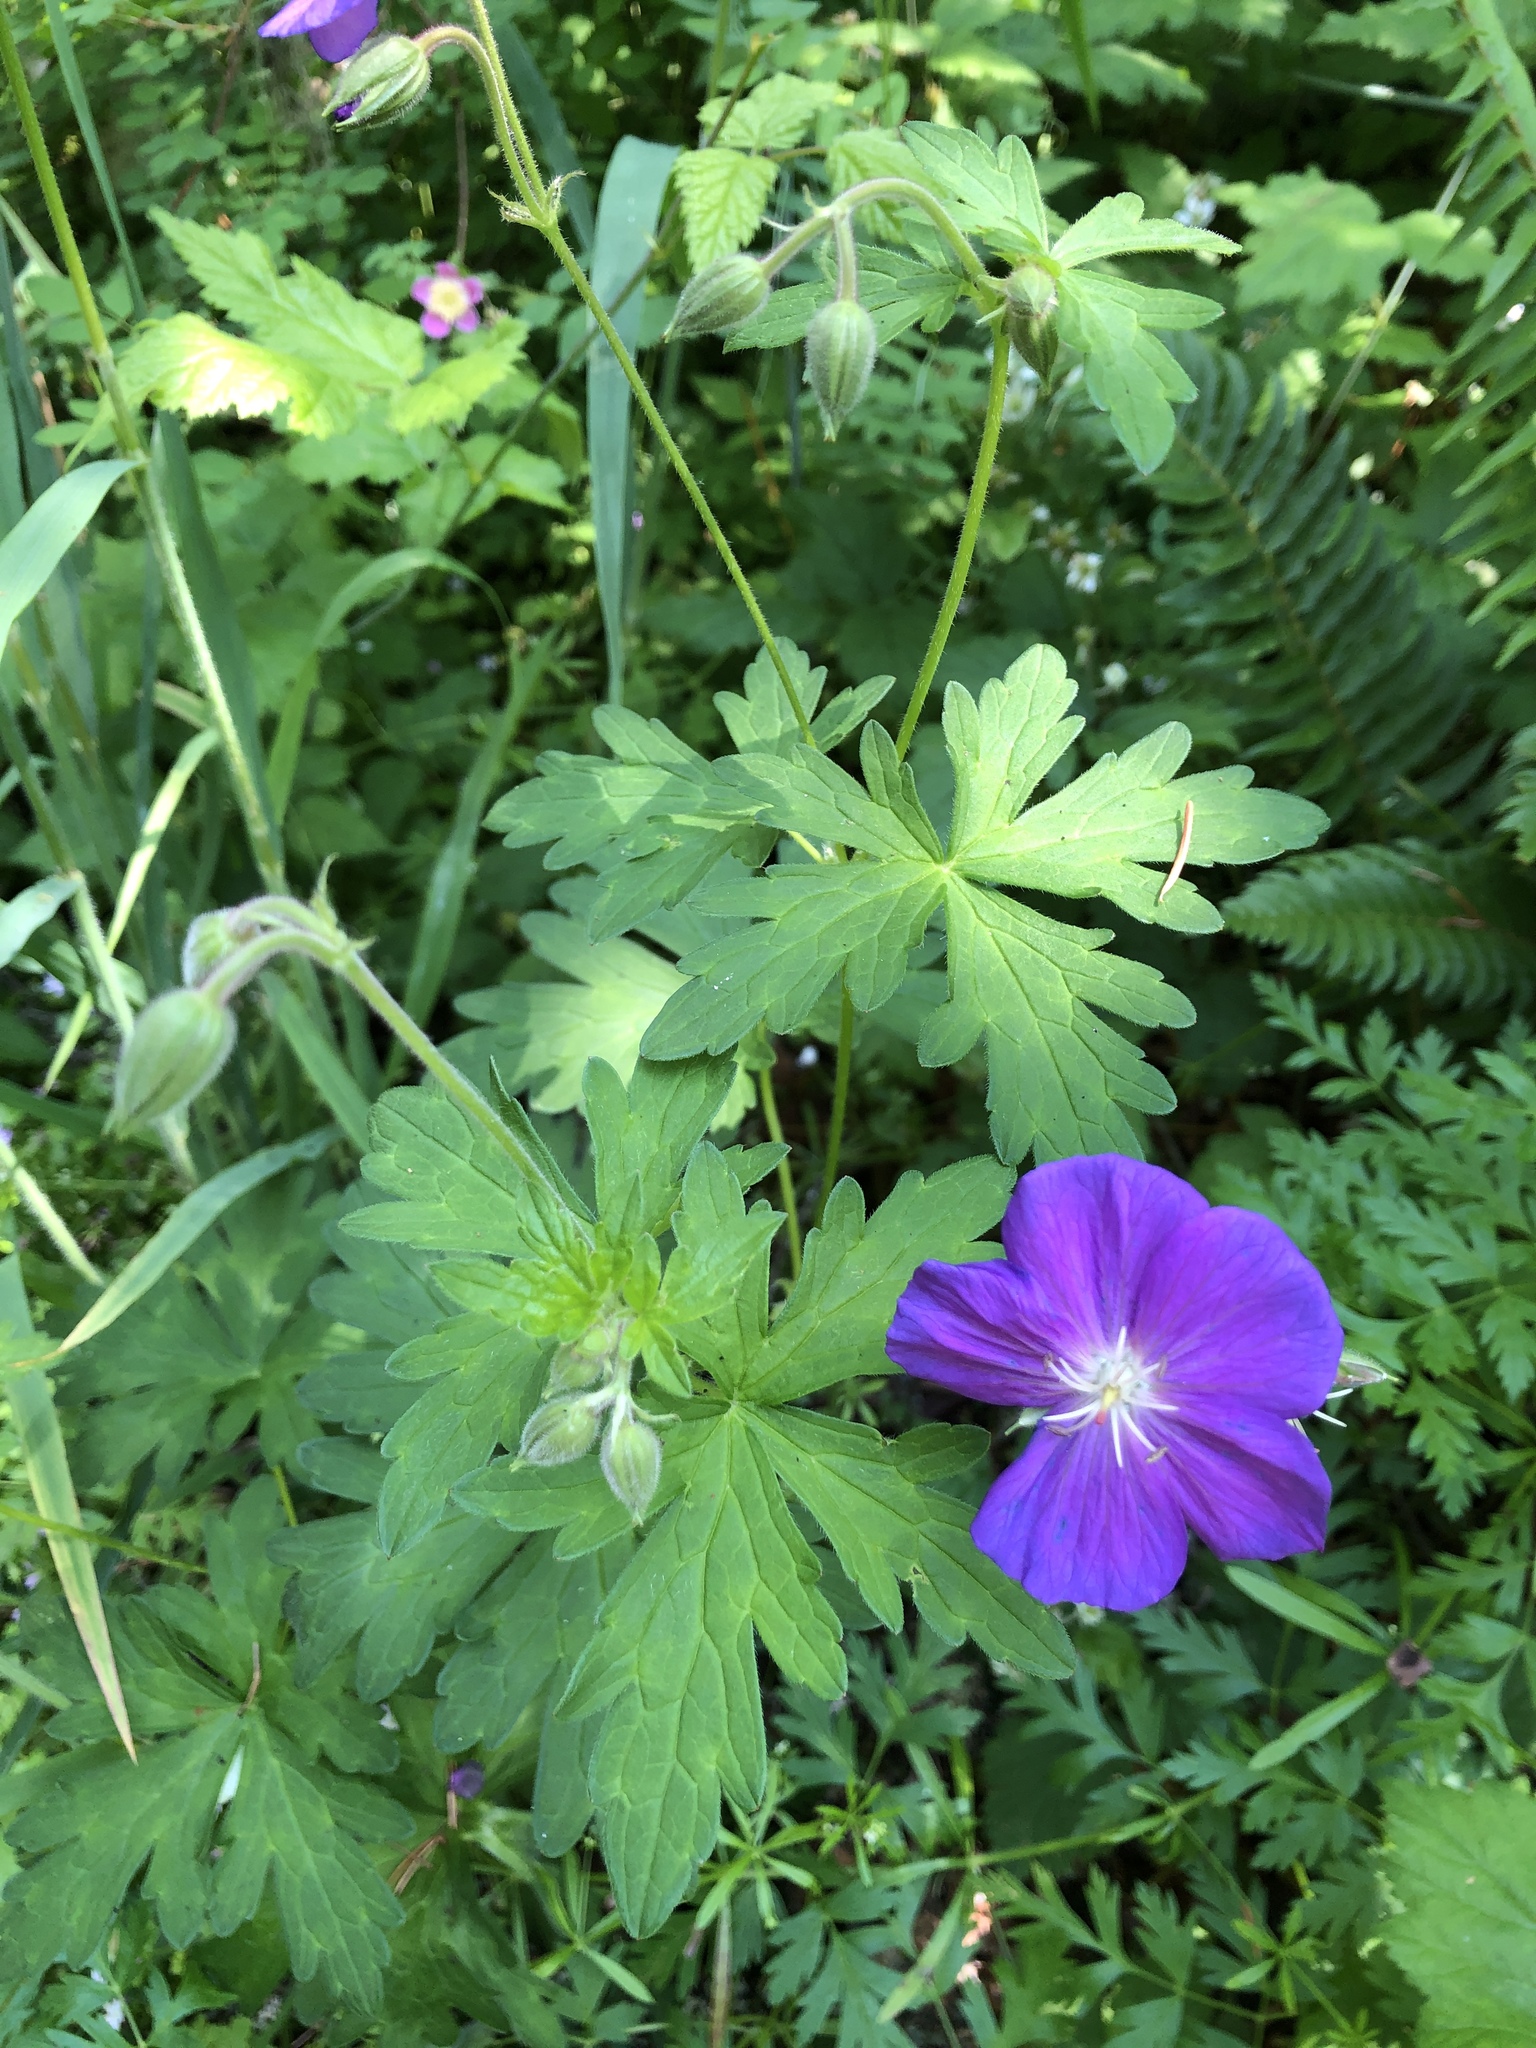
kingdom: Plantae
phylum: Tracheophyta
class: Magnoliopsida
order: Geraniales
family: Geraniaceae
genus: Geranium
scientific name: Geranium oreganum
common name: Oregon crane's-bill
